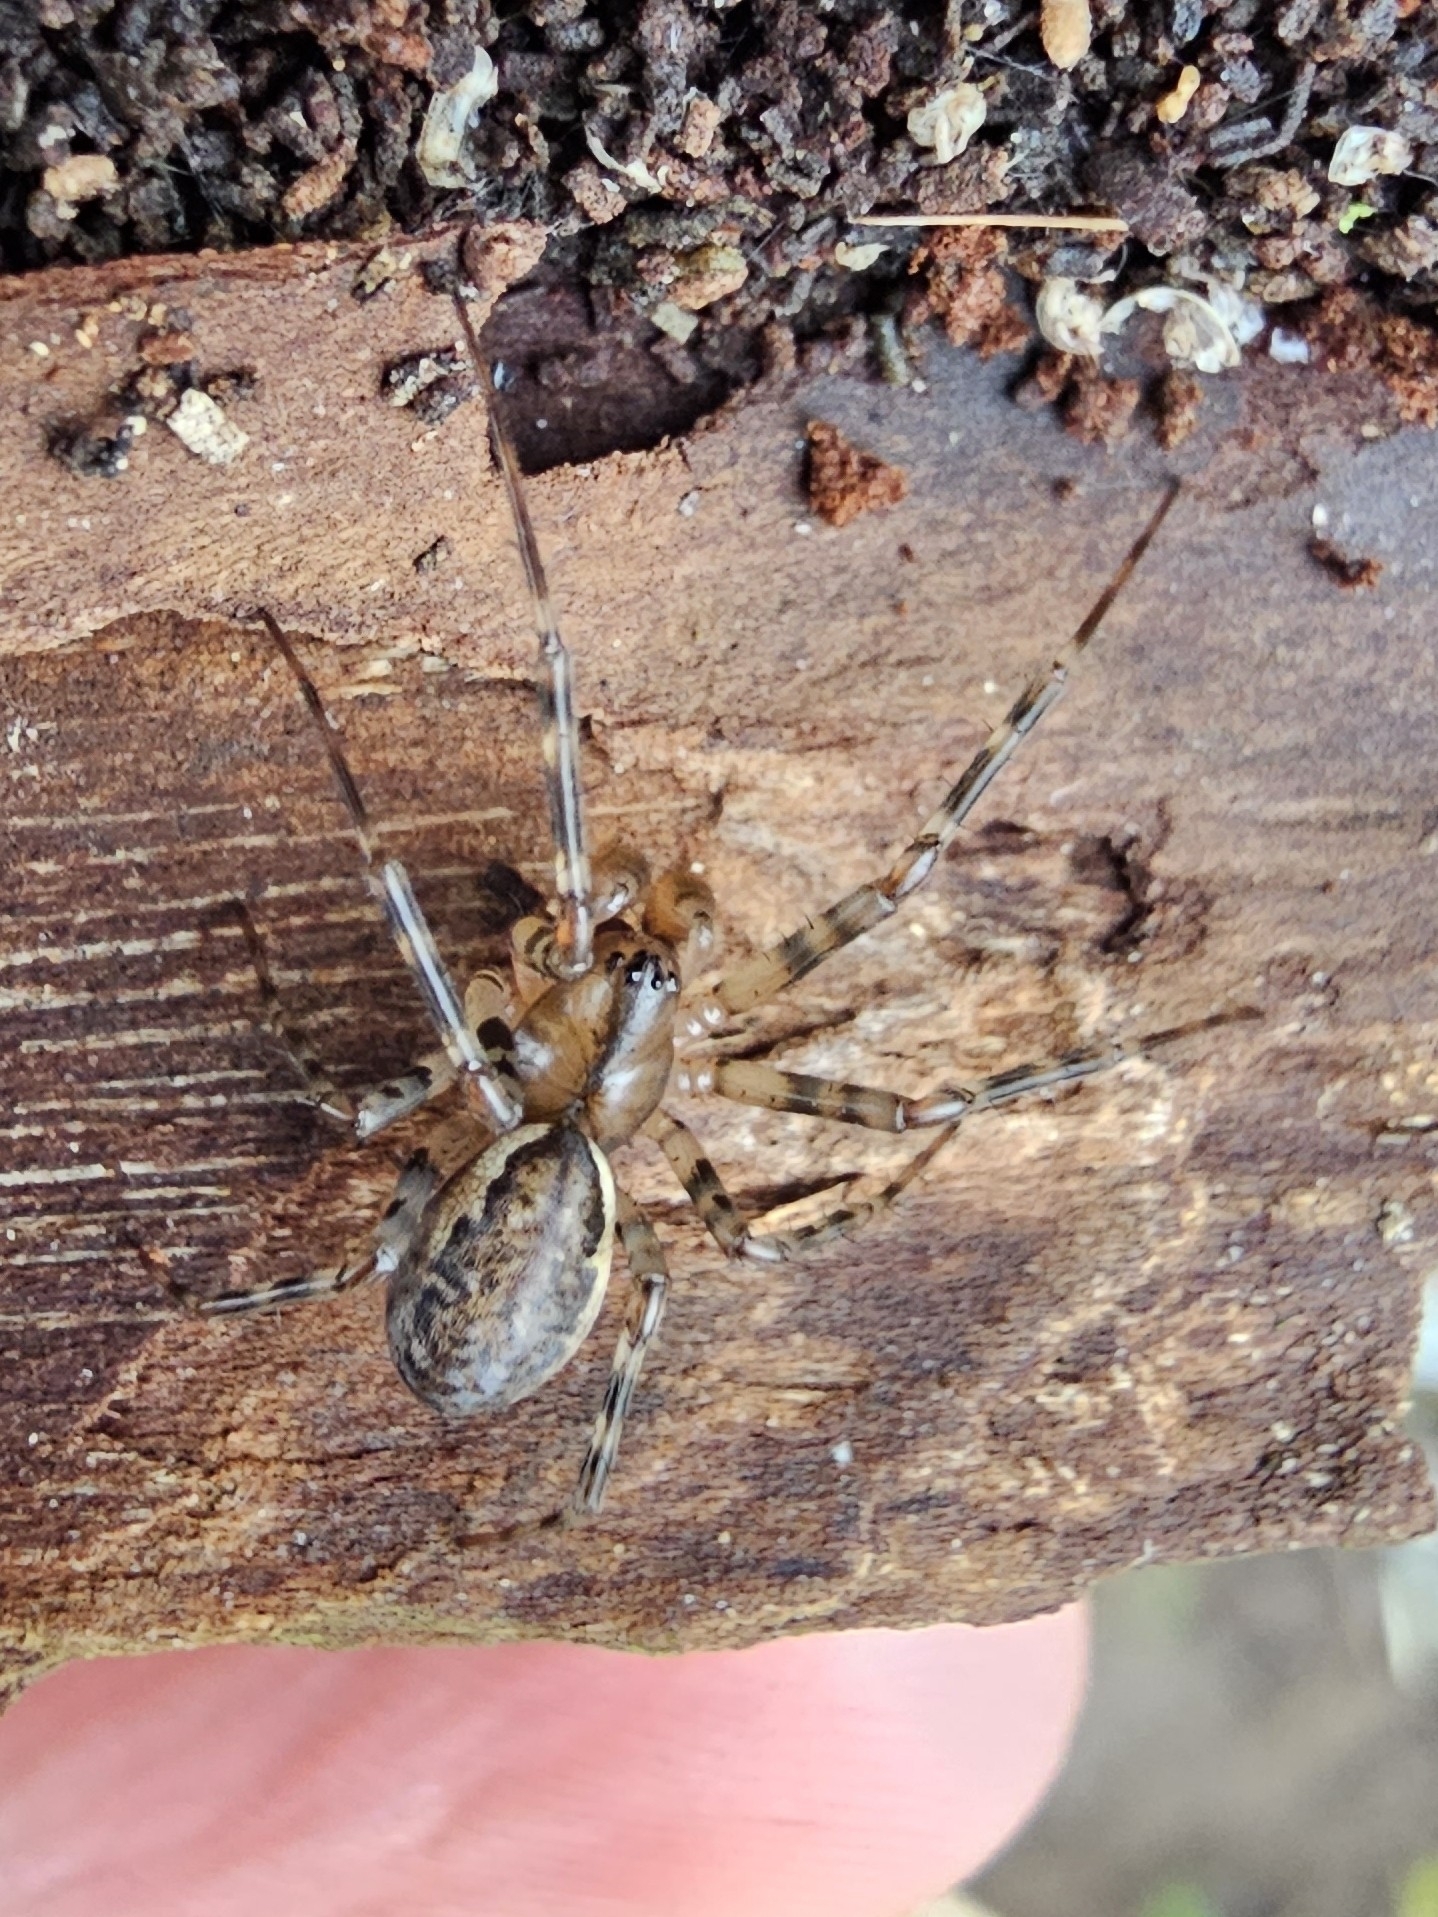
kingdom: Animalia
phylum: Arthropoda
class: Arachnida
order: Araneae
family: Linyphiidae
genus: Neriene
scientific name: Neriene montana
